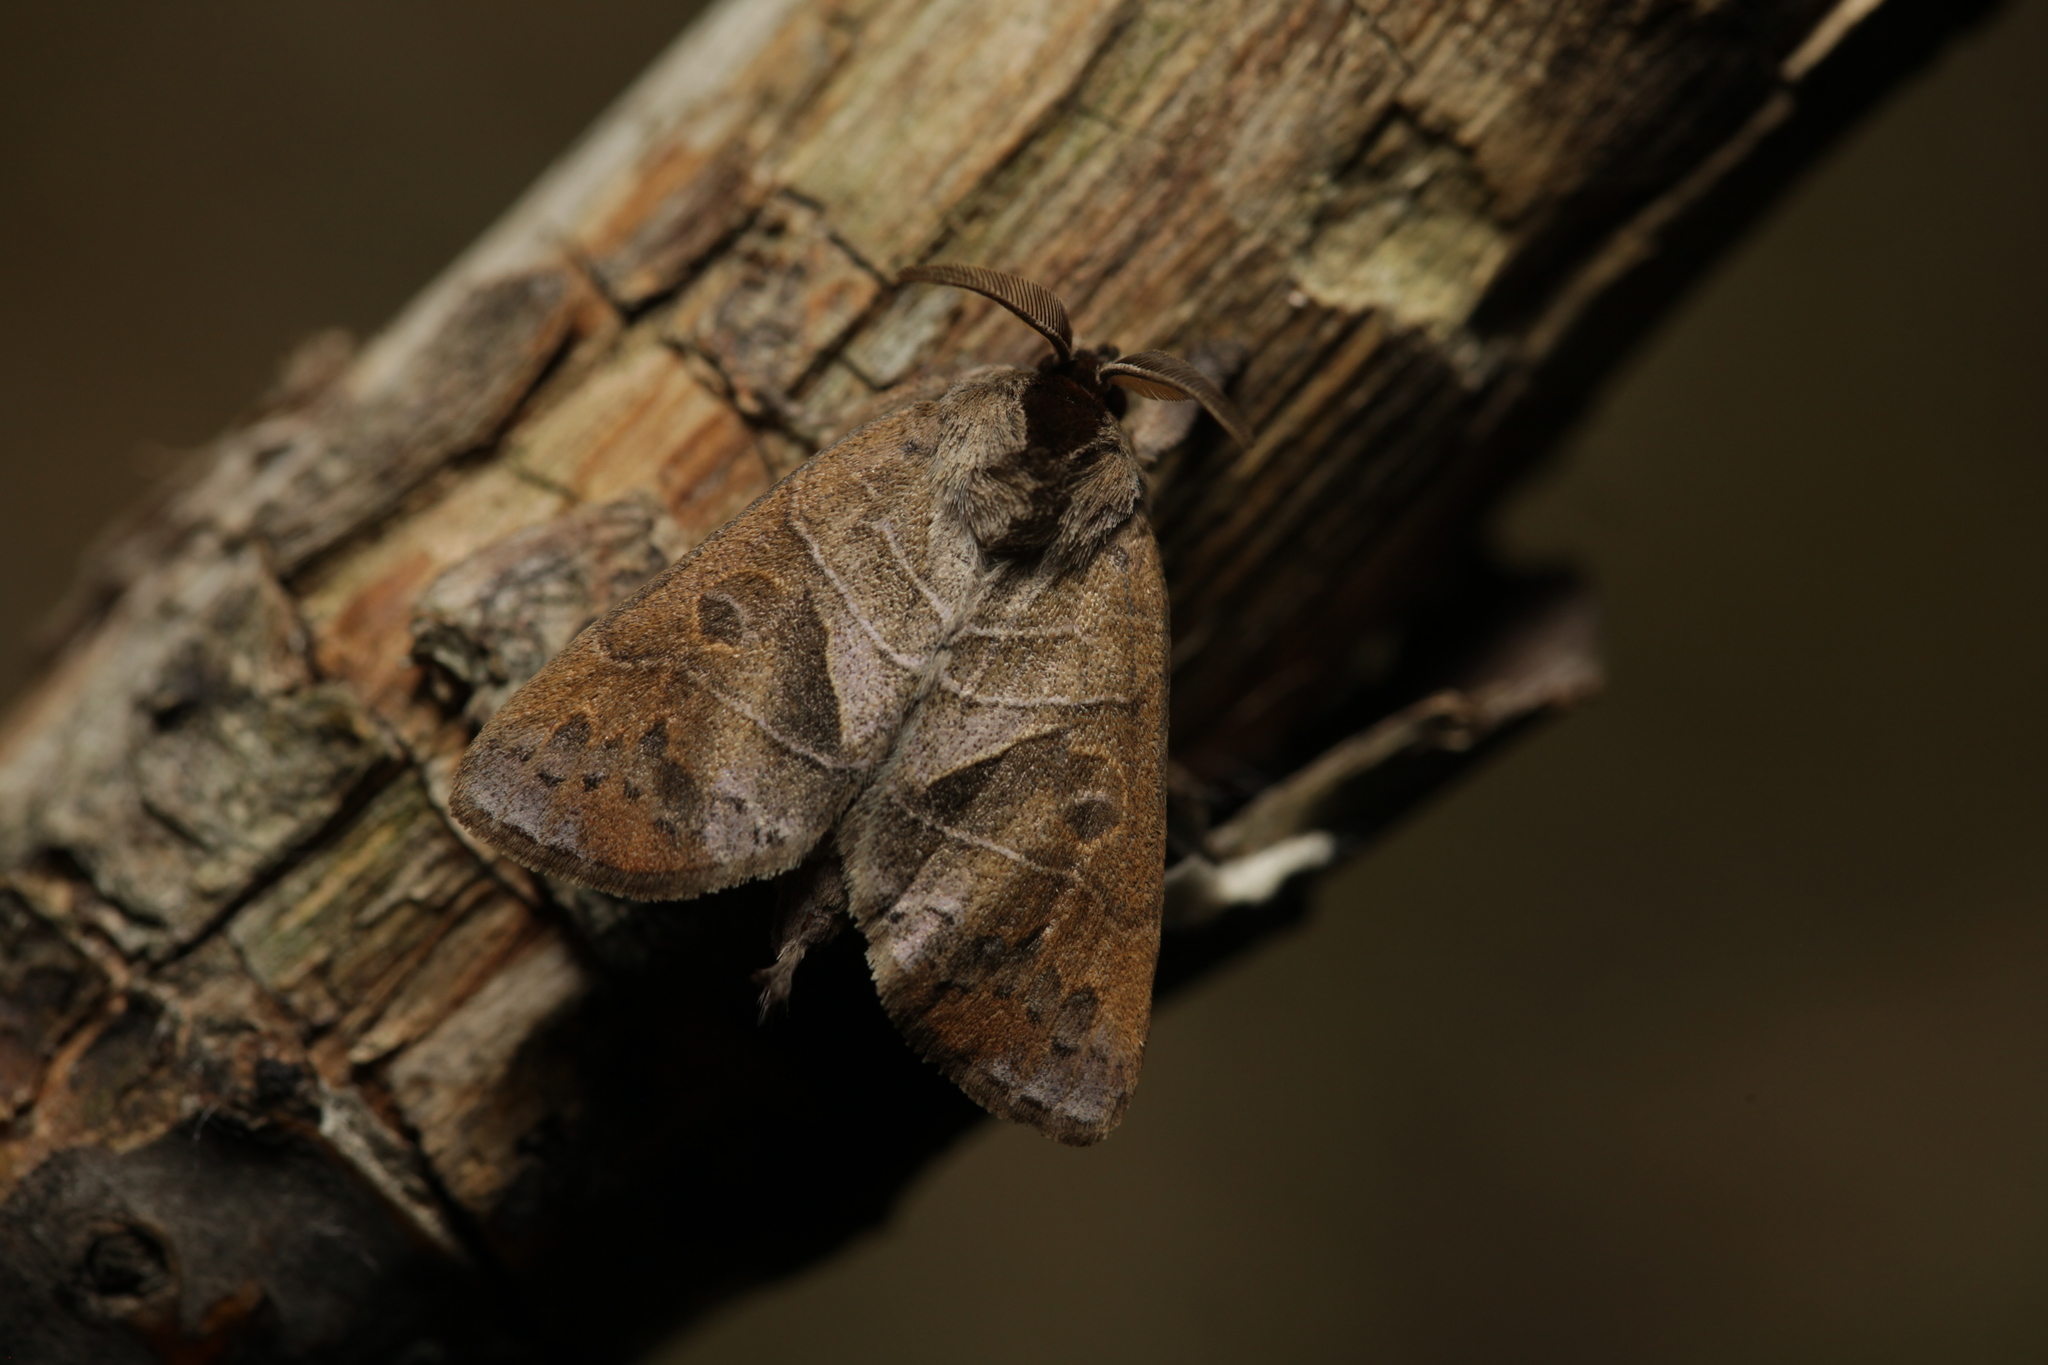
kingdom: Animalia
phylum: Arthropoda
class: Insecta
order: Lepidoptera
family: Notodontidae
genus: Clostera
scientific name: Clostera anastomosis
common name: Poplar tip moth
